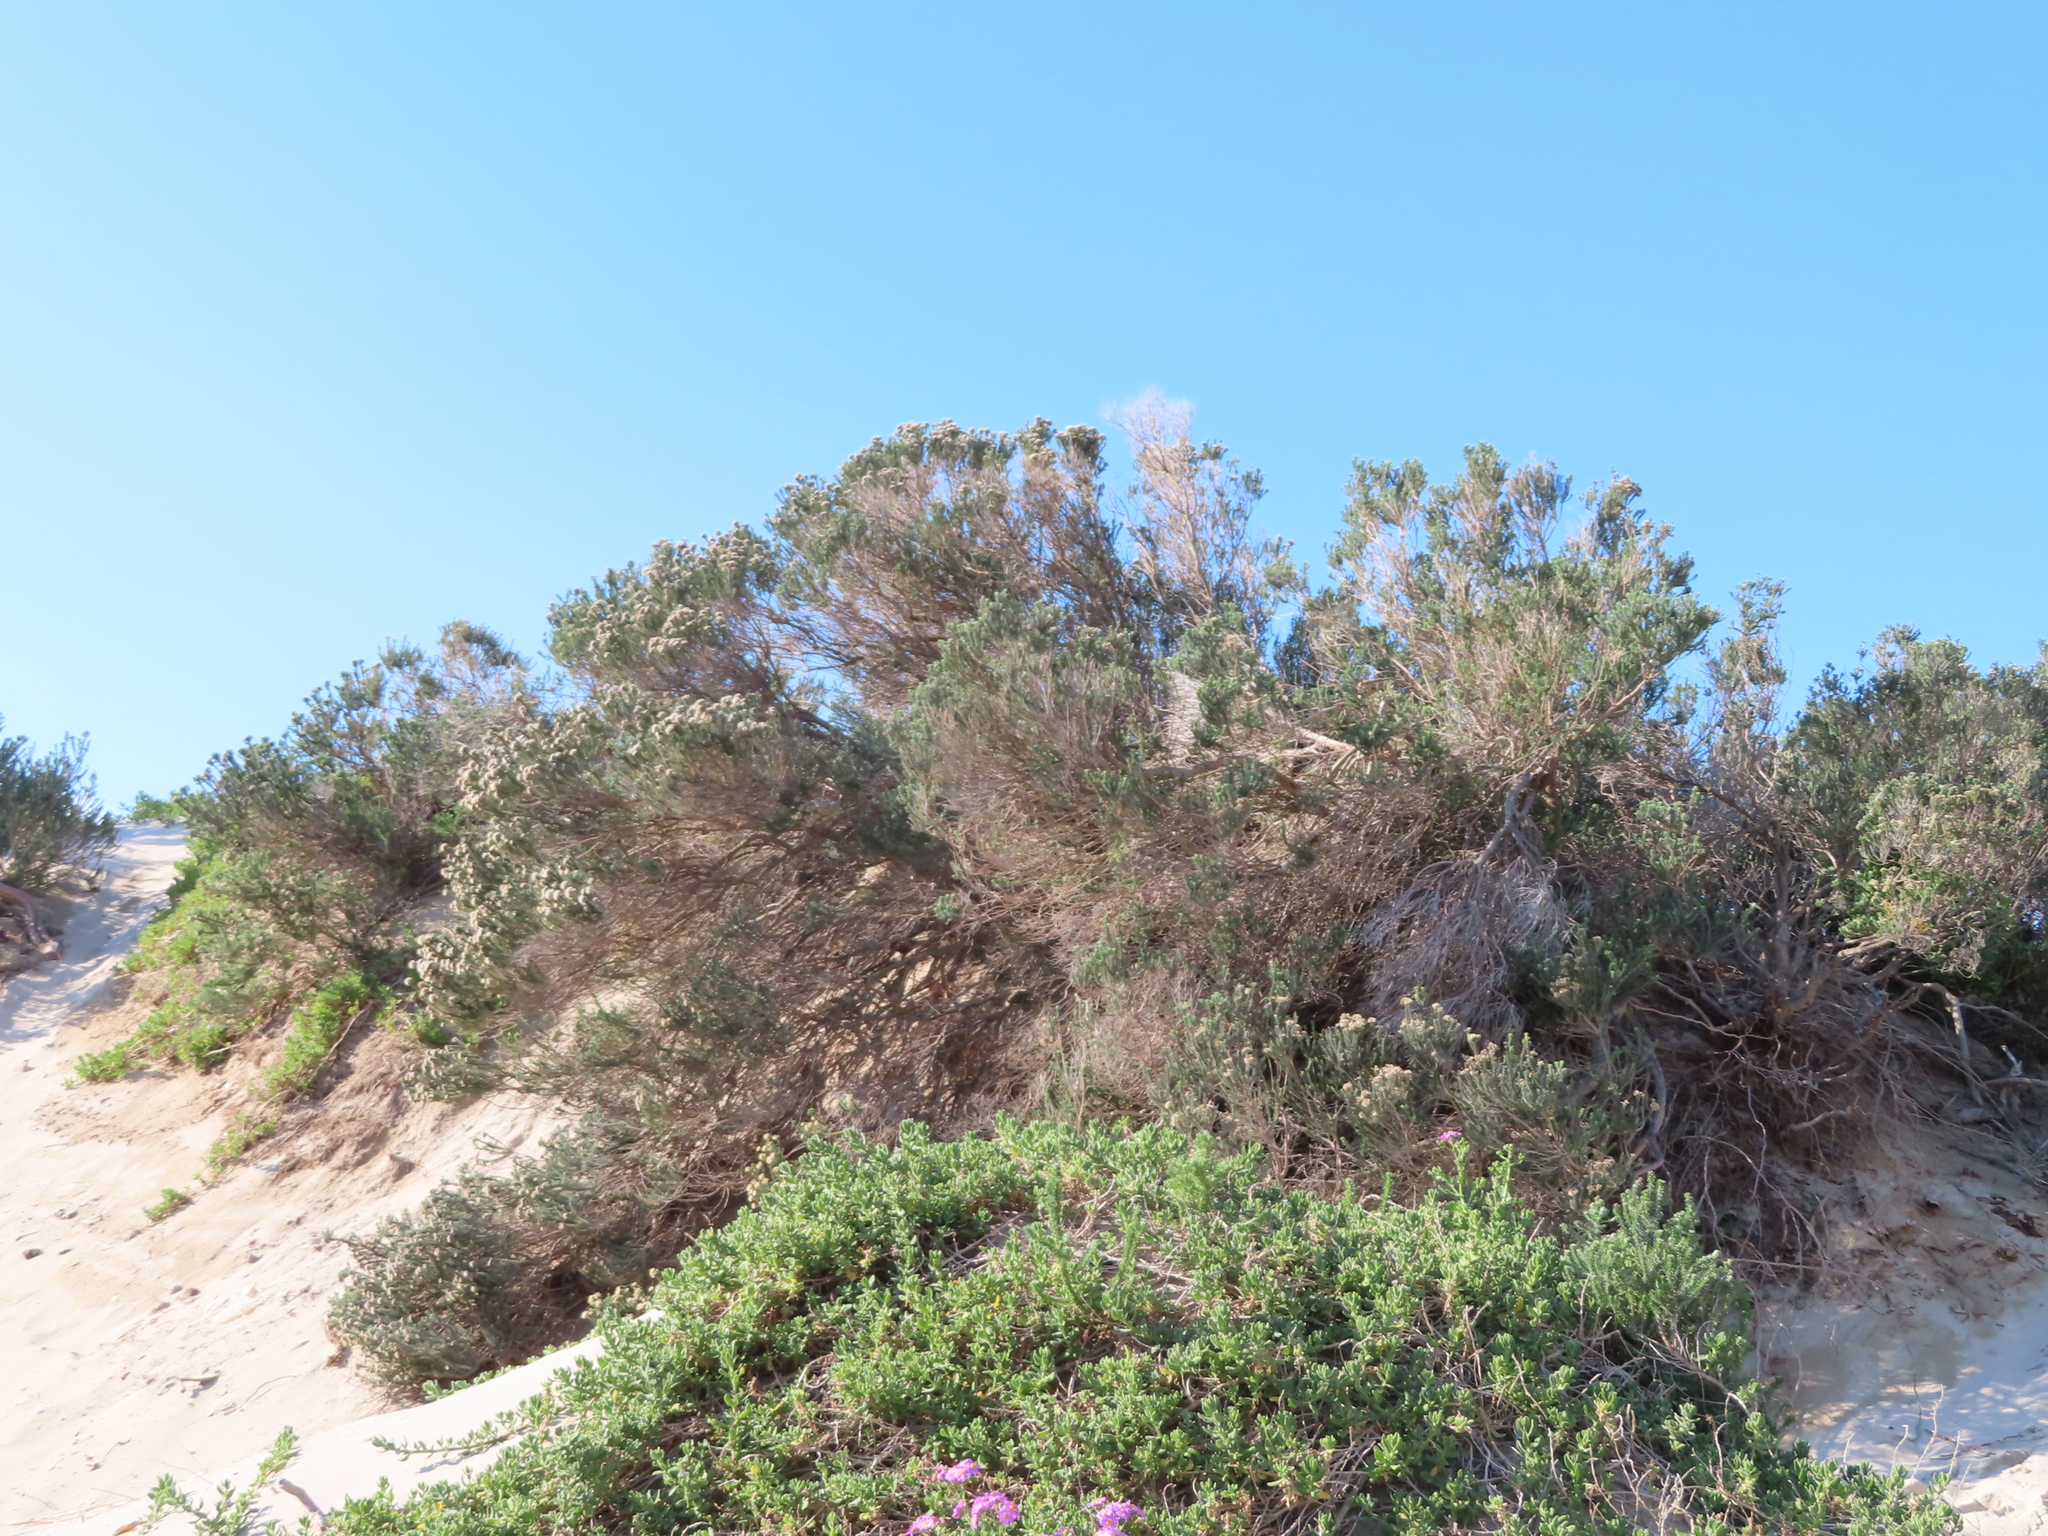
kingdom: Plantae
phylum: Tracheophyta
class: Magnoliopsida
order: Asterales
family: Asteraceae
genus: Metalasia
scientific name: Metalasia muricata
